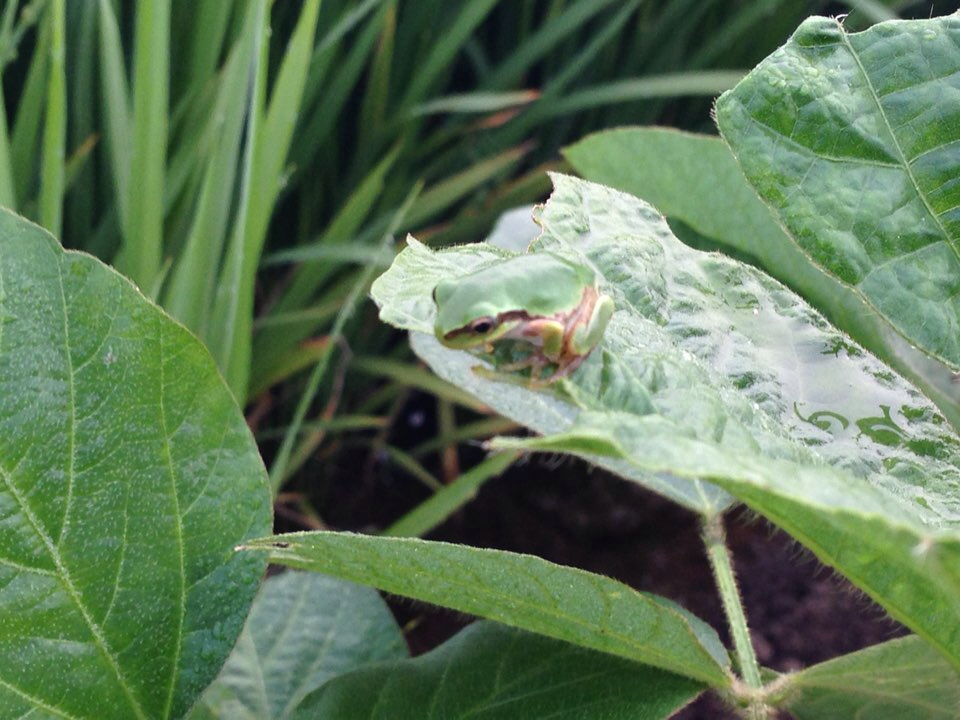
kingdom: Animalia
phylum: Chordata
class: Amphibia
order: Anura
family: Hylidae
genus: Dryophytes
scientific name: Dryophytes japonicus
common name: Japanese treefrog
